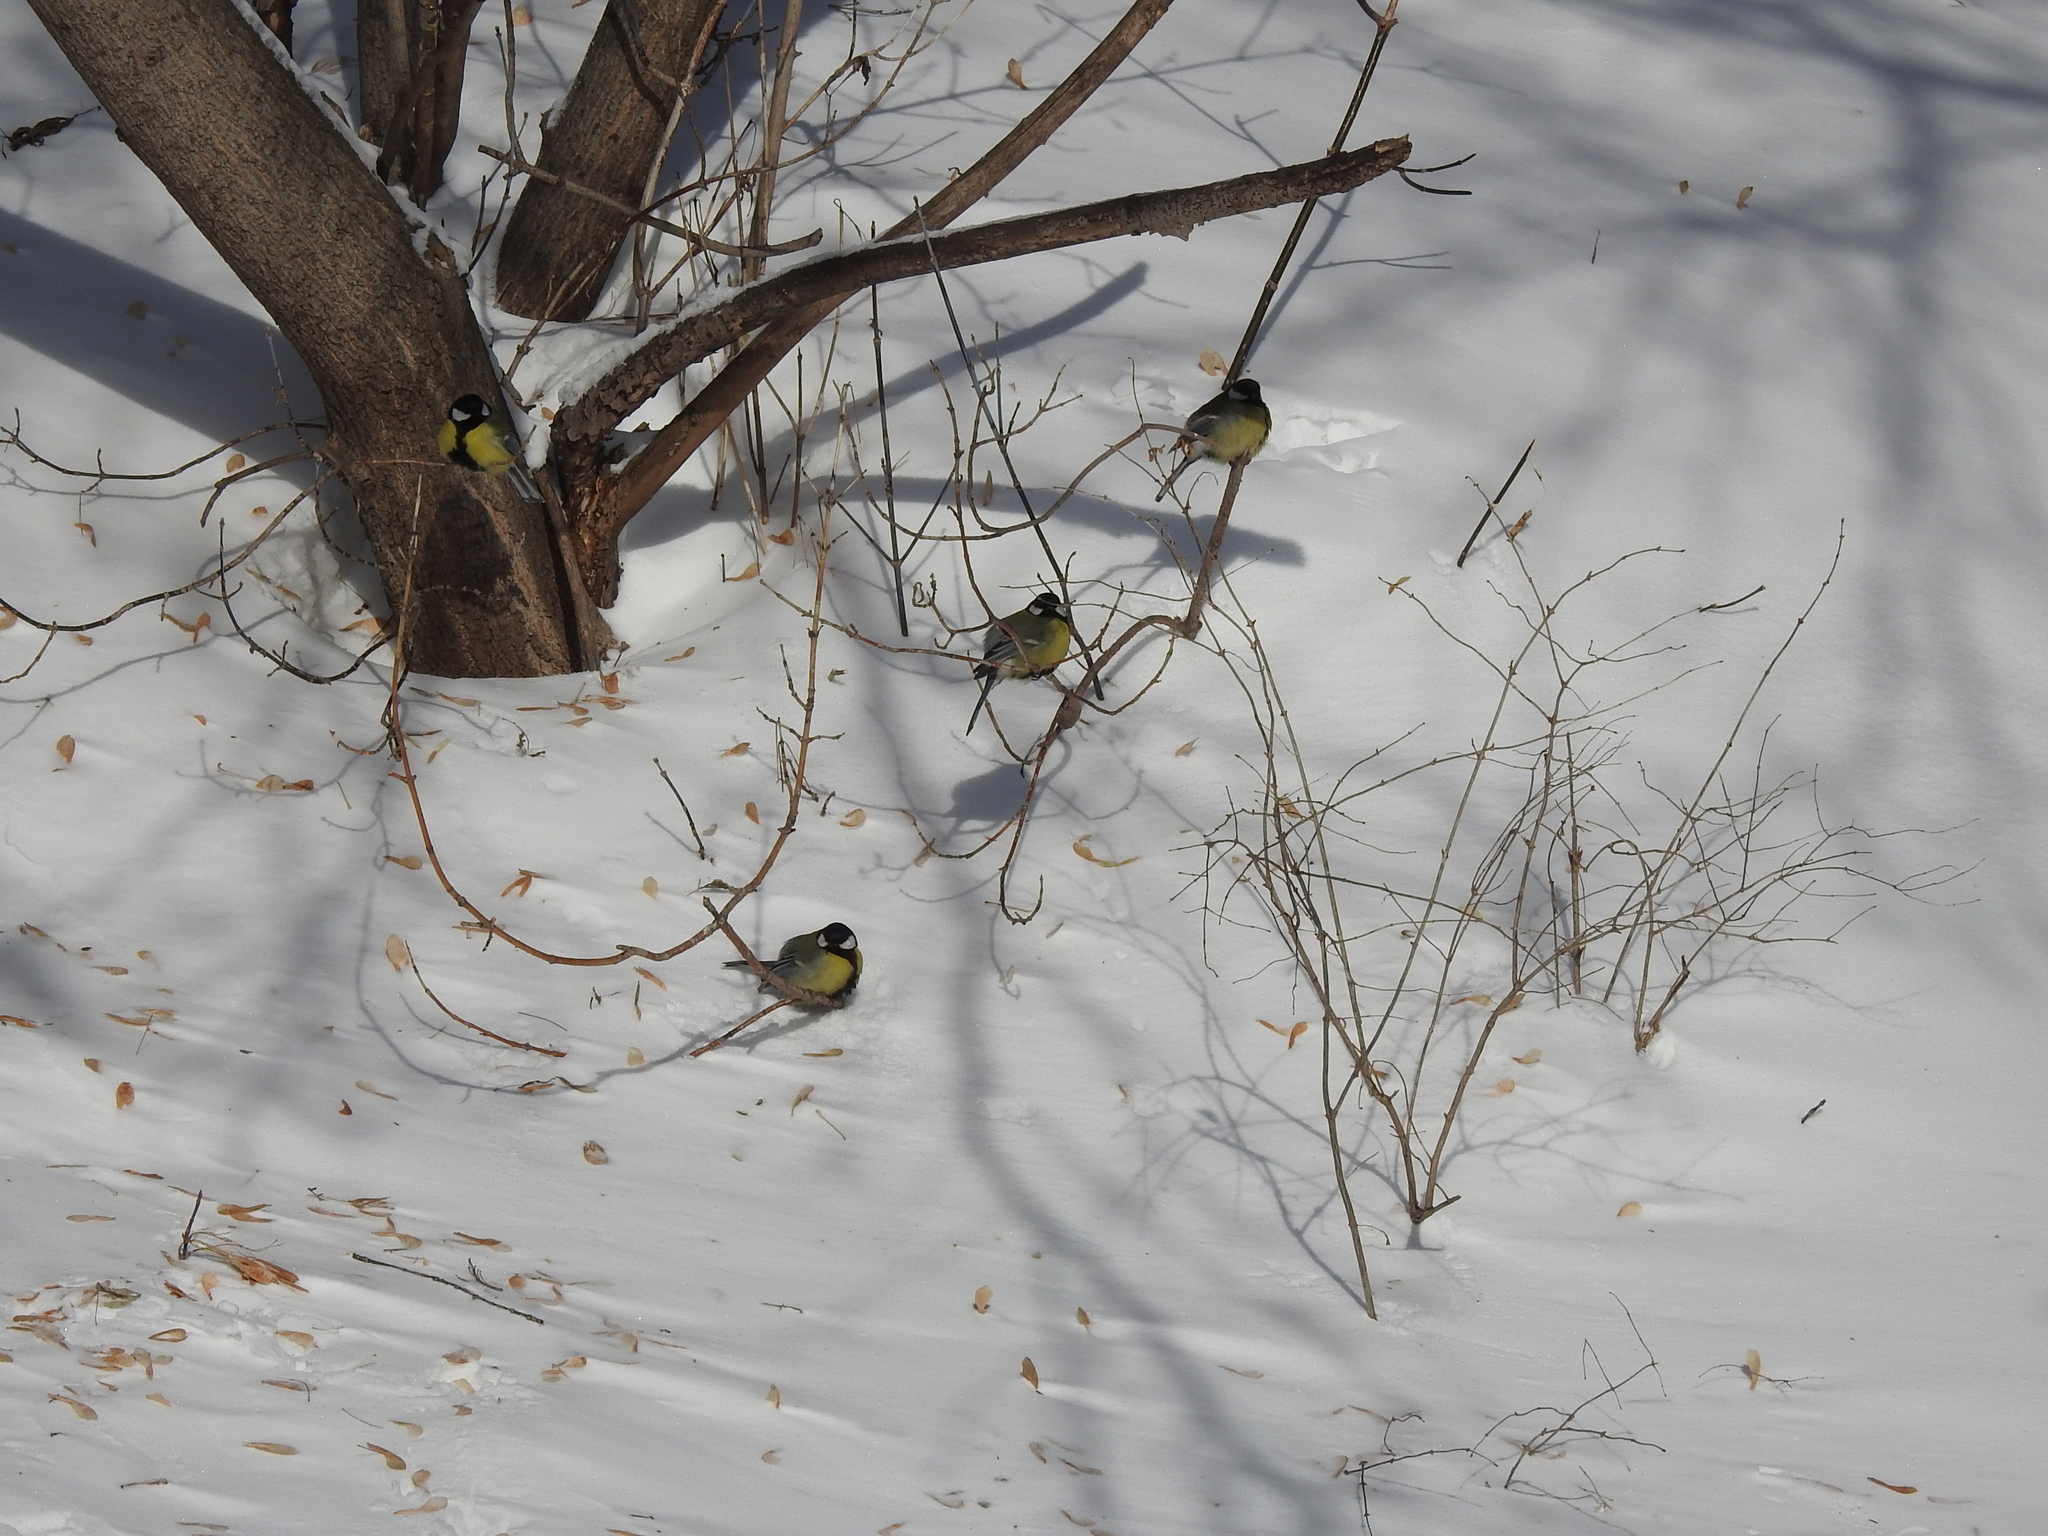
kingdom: Animalia
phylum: Chordata
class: Aves
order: Passeriformes
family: Paridae
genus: Parus
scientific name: Parus major
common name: Great tit
